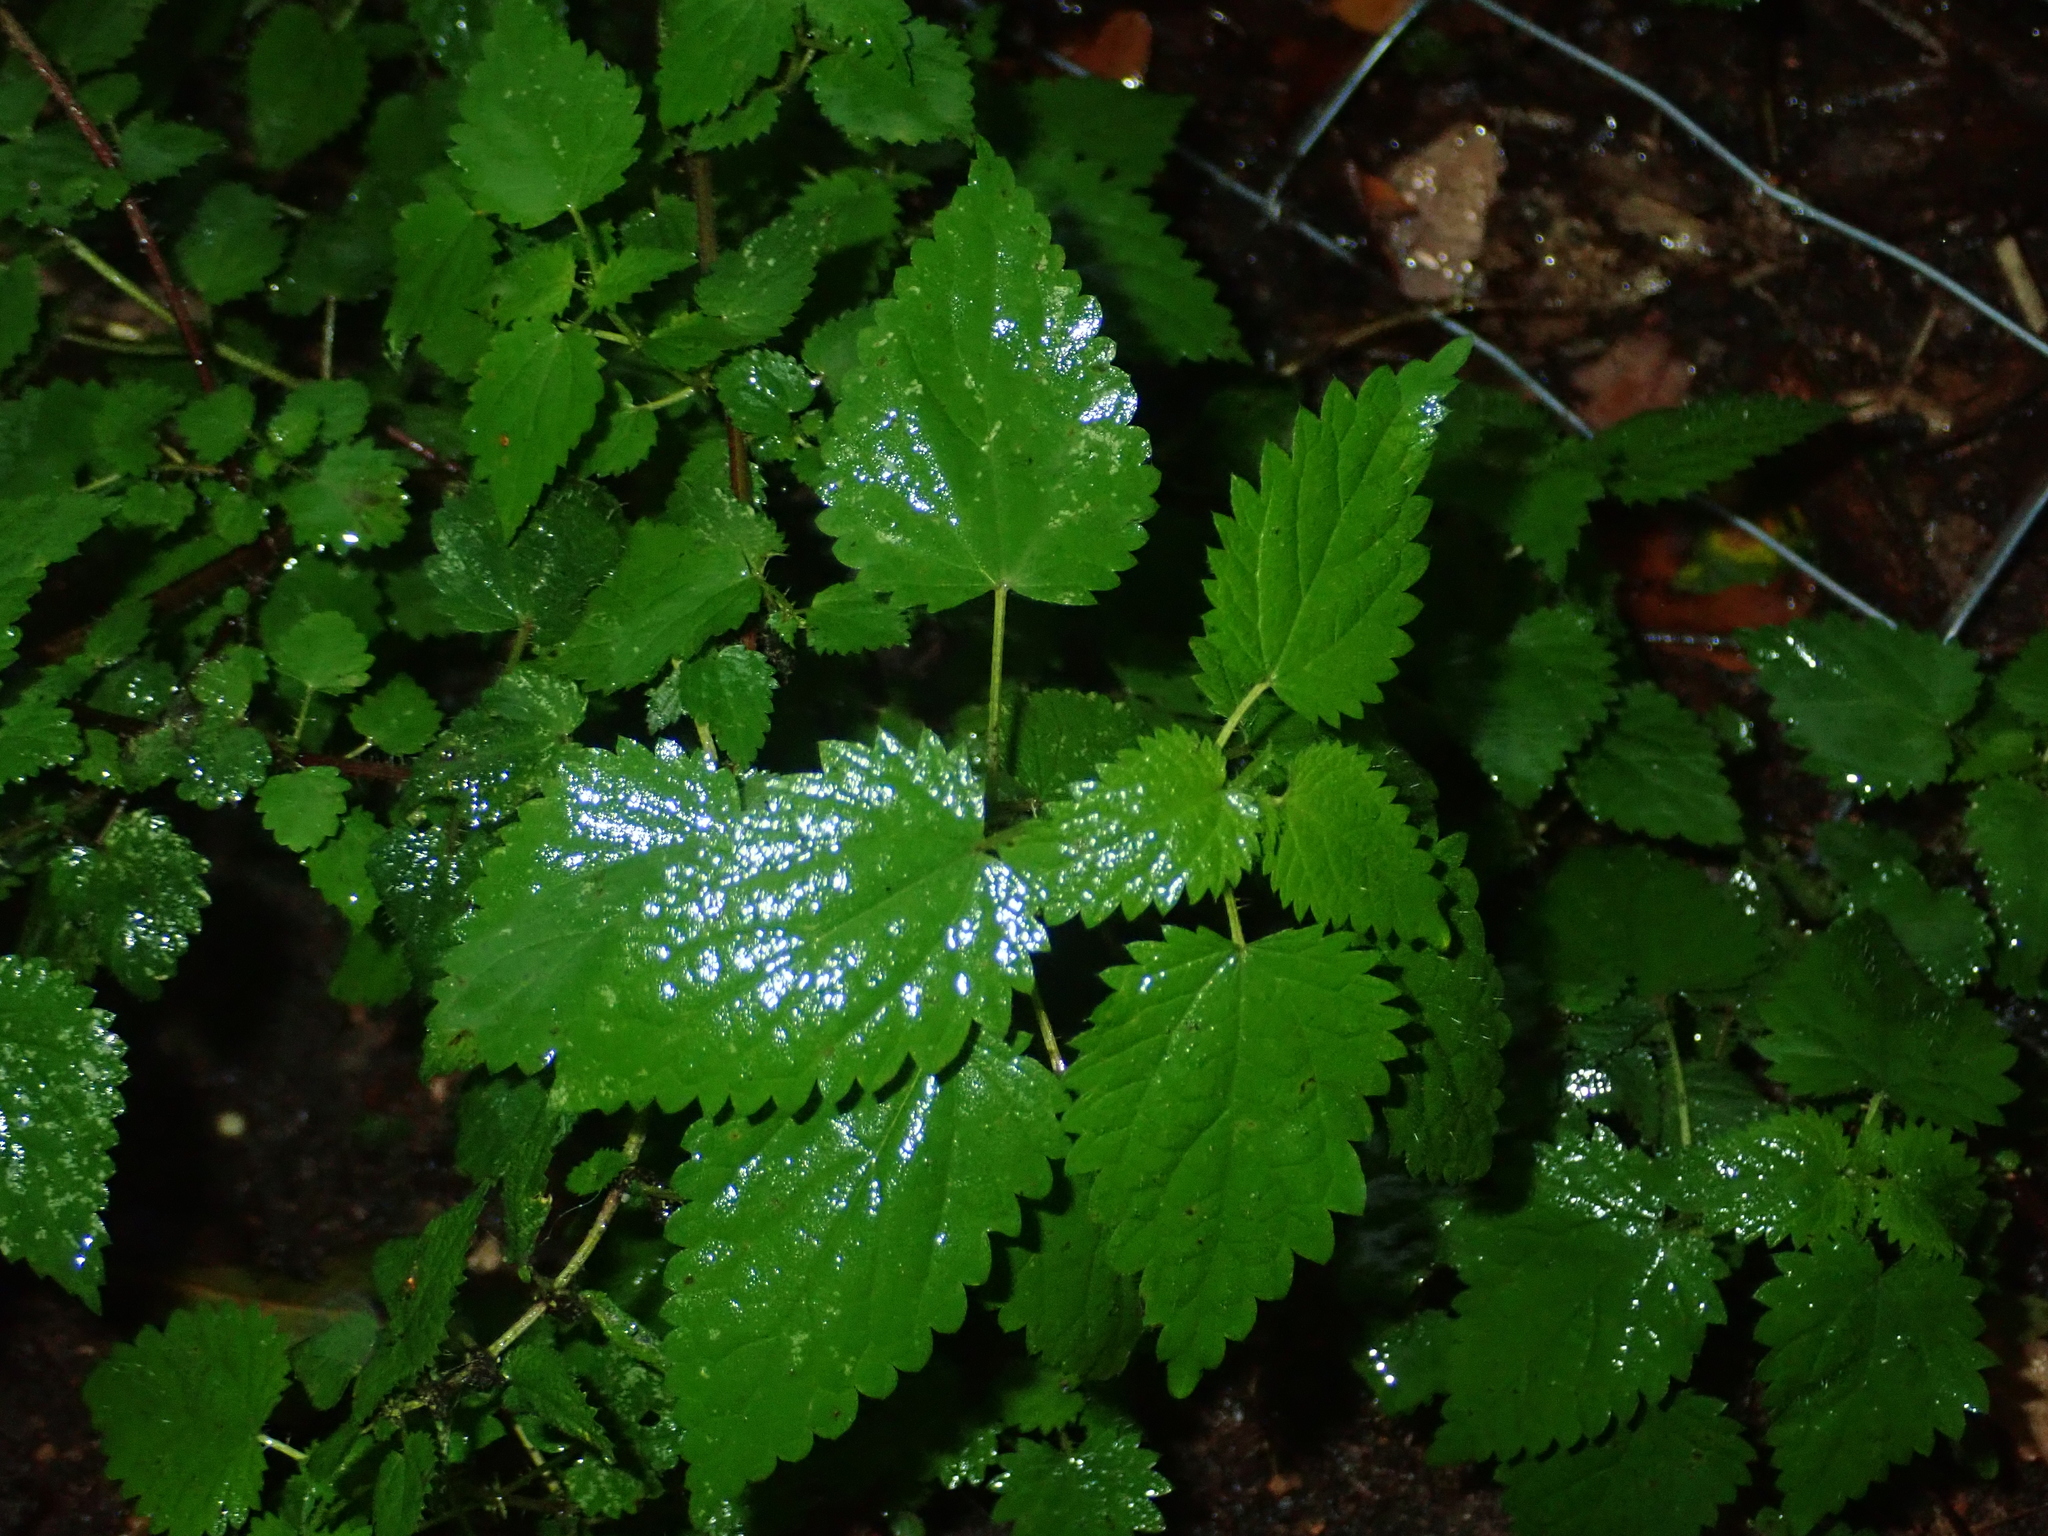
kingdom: Plantae
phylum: Tracheophyta
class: Magnoliopsida
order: Rosales
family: Urticaceae
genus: Urtica
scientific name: Urtica dioica
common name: Common nettle
